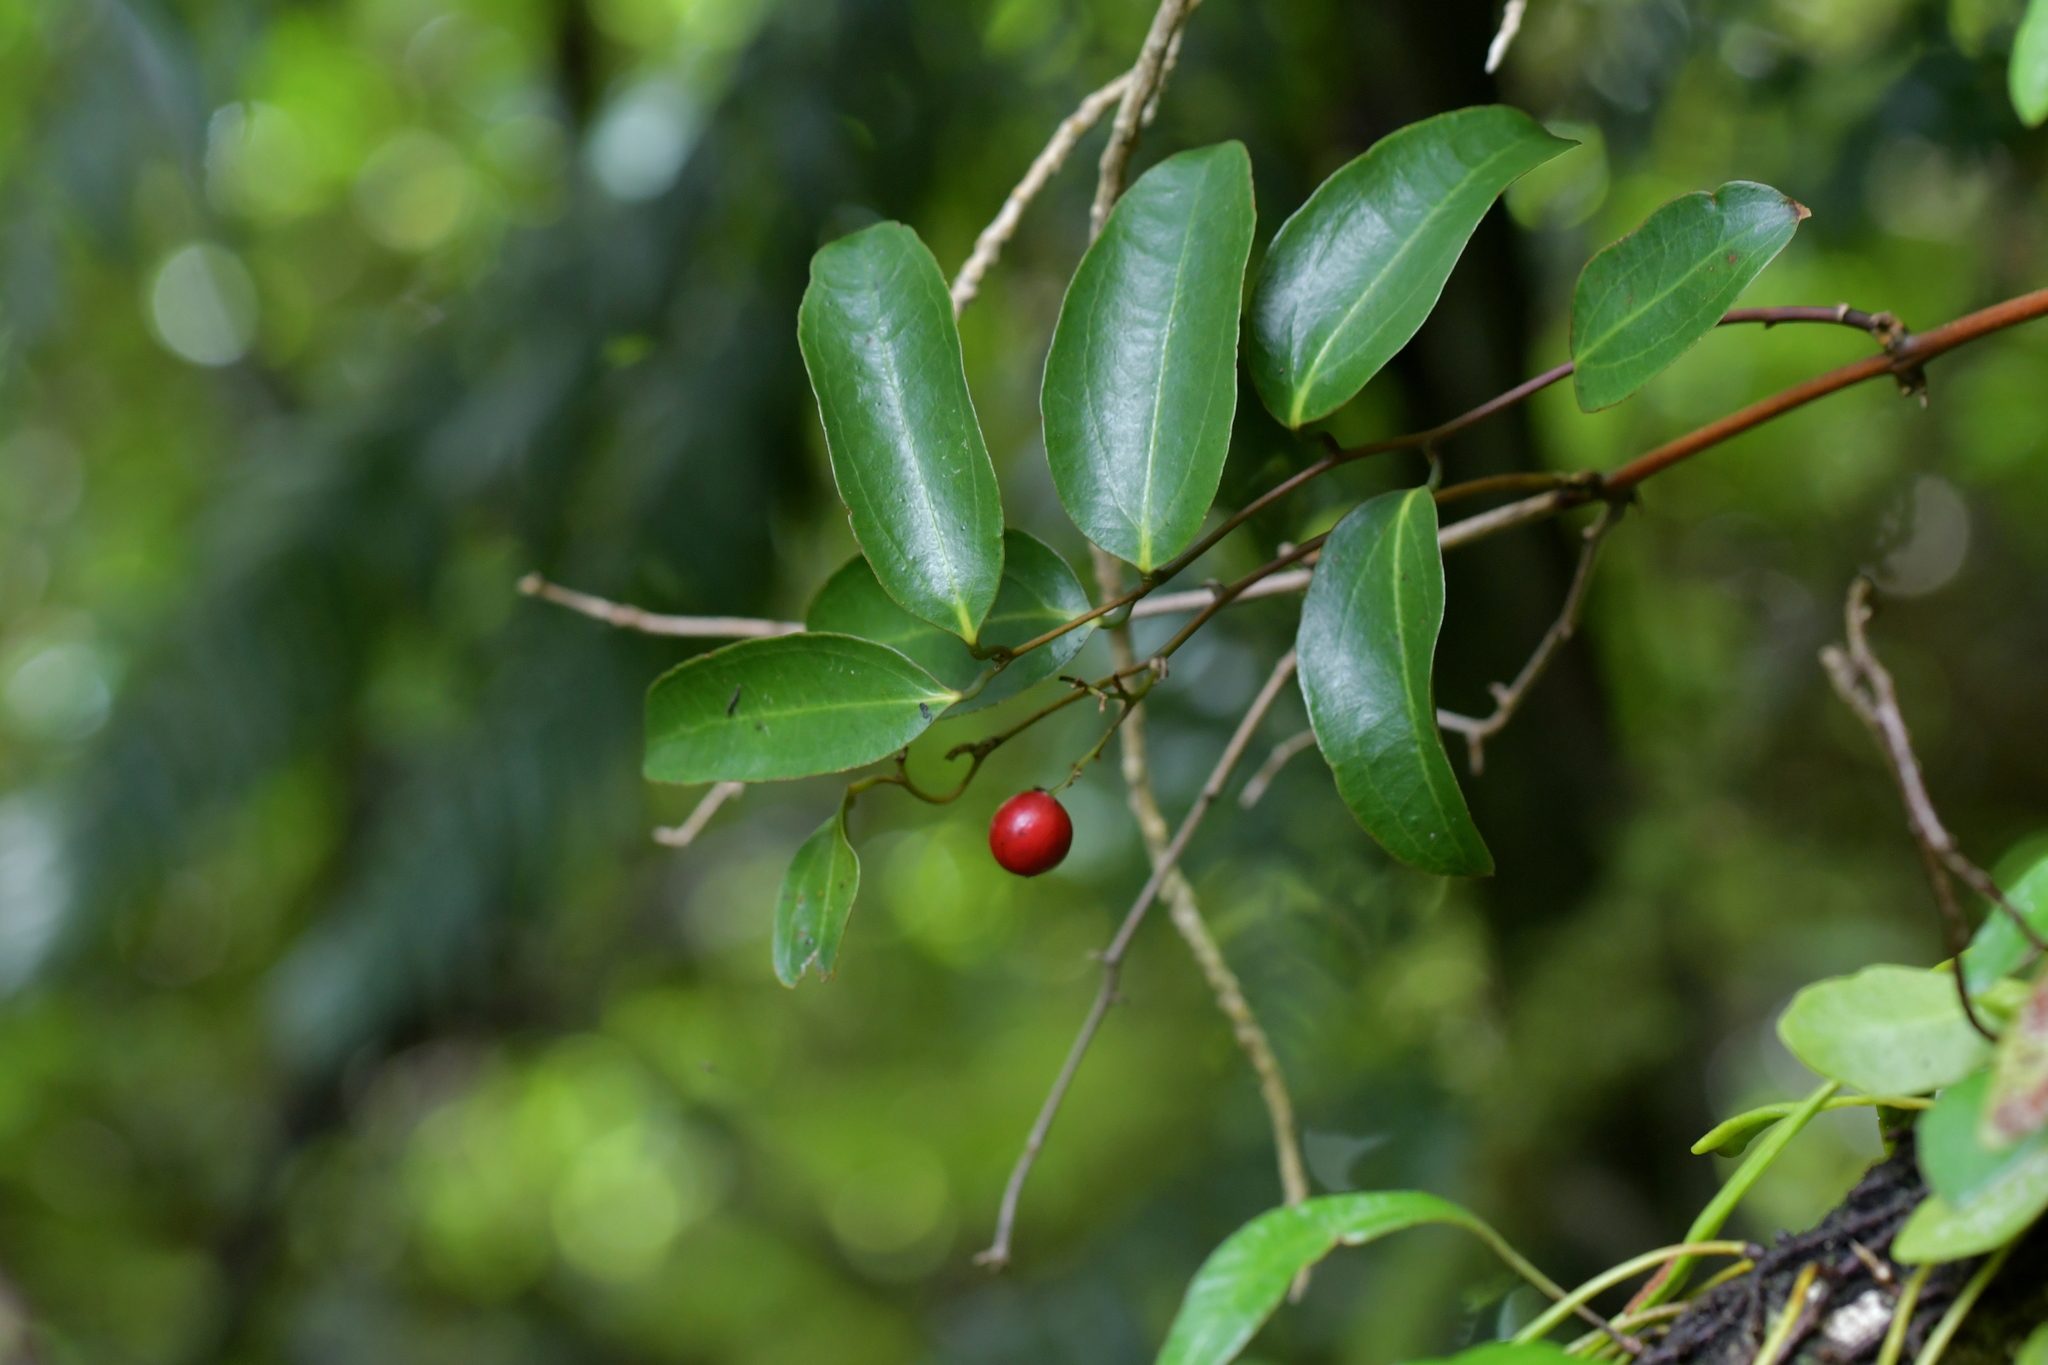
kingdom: Plantae
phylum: Tracheophyta
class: Liliopsida
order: Liliales
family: Ripogonaceae
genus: Ripogonum
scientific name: Ripogonum scandens
